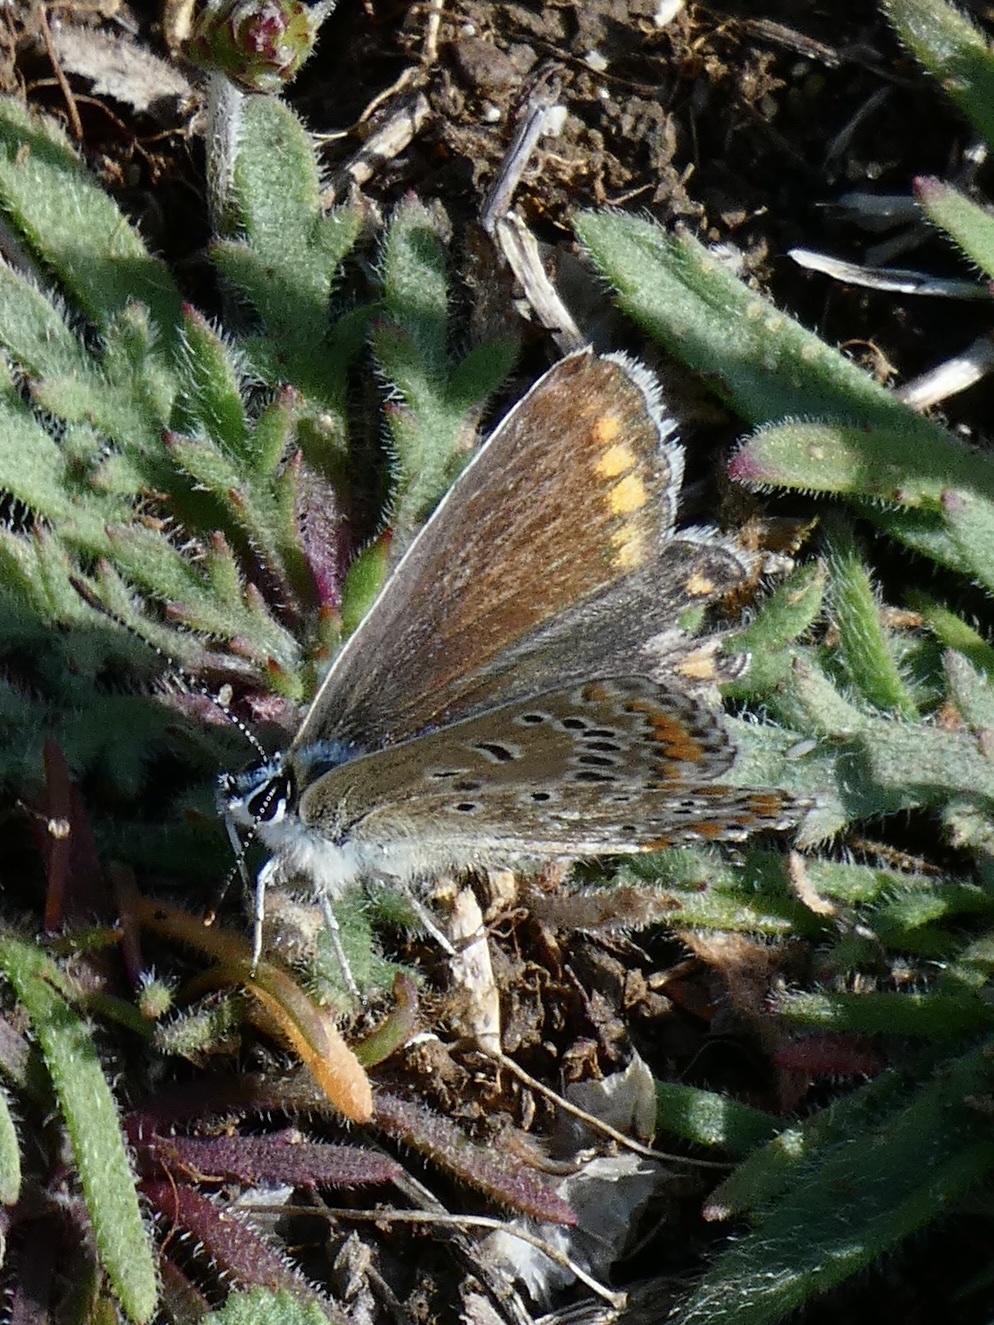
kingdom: Animalia
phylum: Arthropoda
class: Insecta
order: Lepidoptera
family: Lycaenidae
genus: Polyommatus
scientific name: Polyommatus icarus
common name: Common blue
